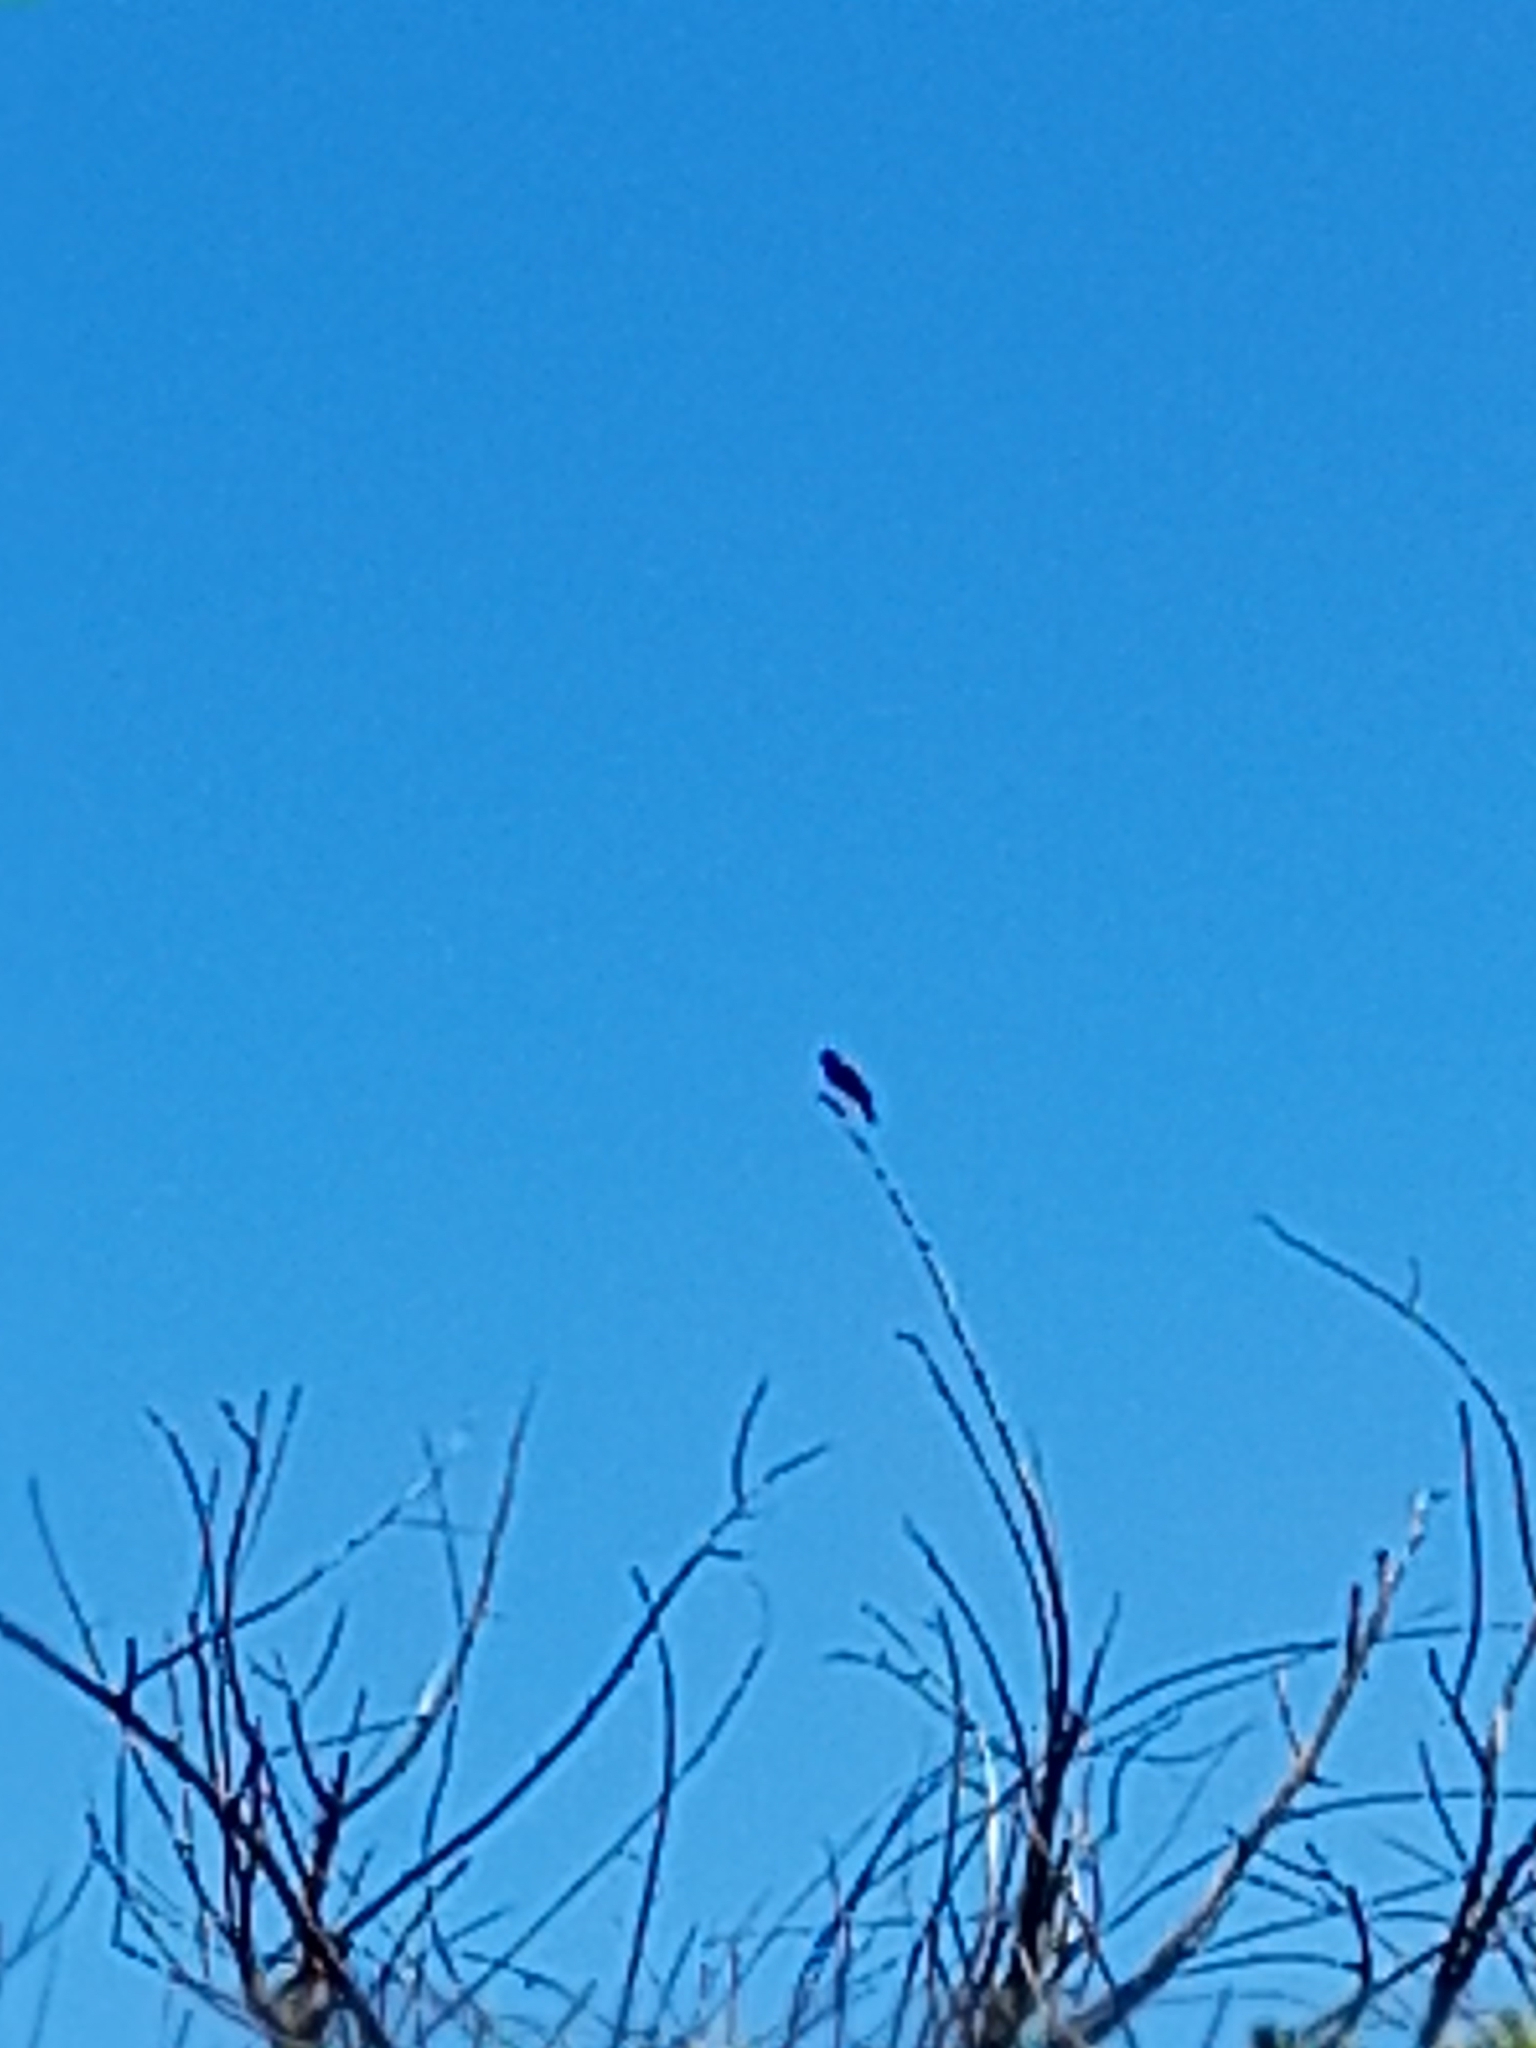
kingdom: Animalia
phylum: Chordata
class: Aves
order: Passeriformes
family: Tyrannidae
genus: Hymenops
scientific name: Hymenops perspicillatus
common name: Spectacled tyrant
